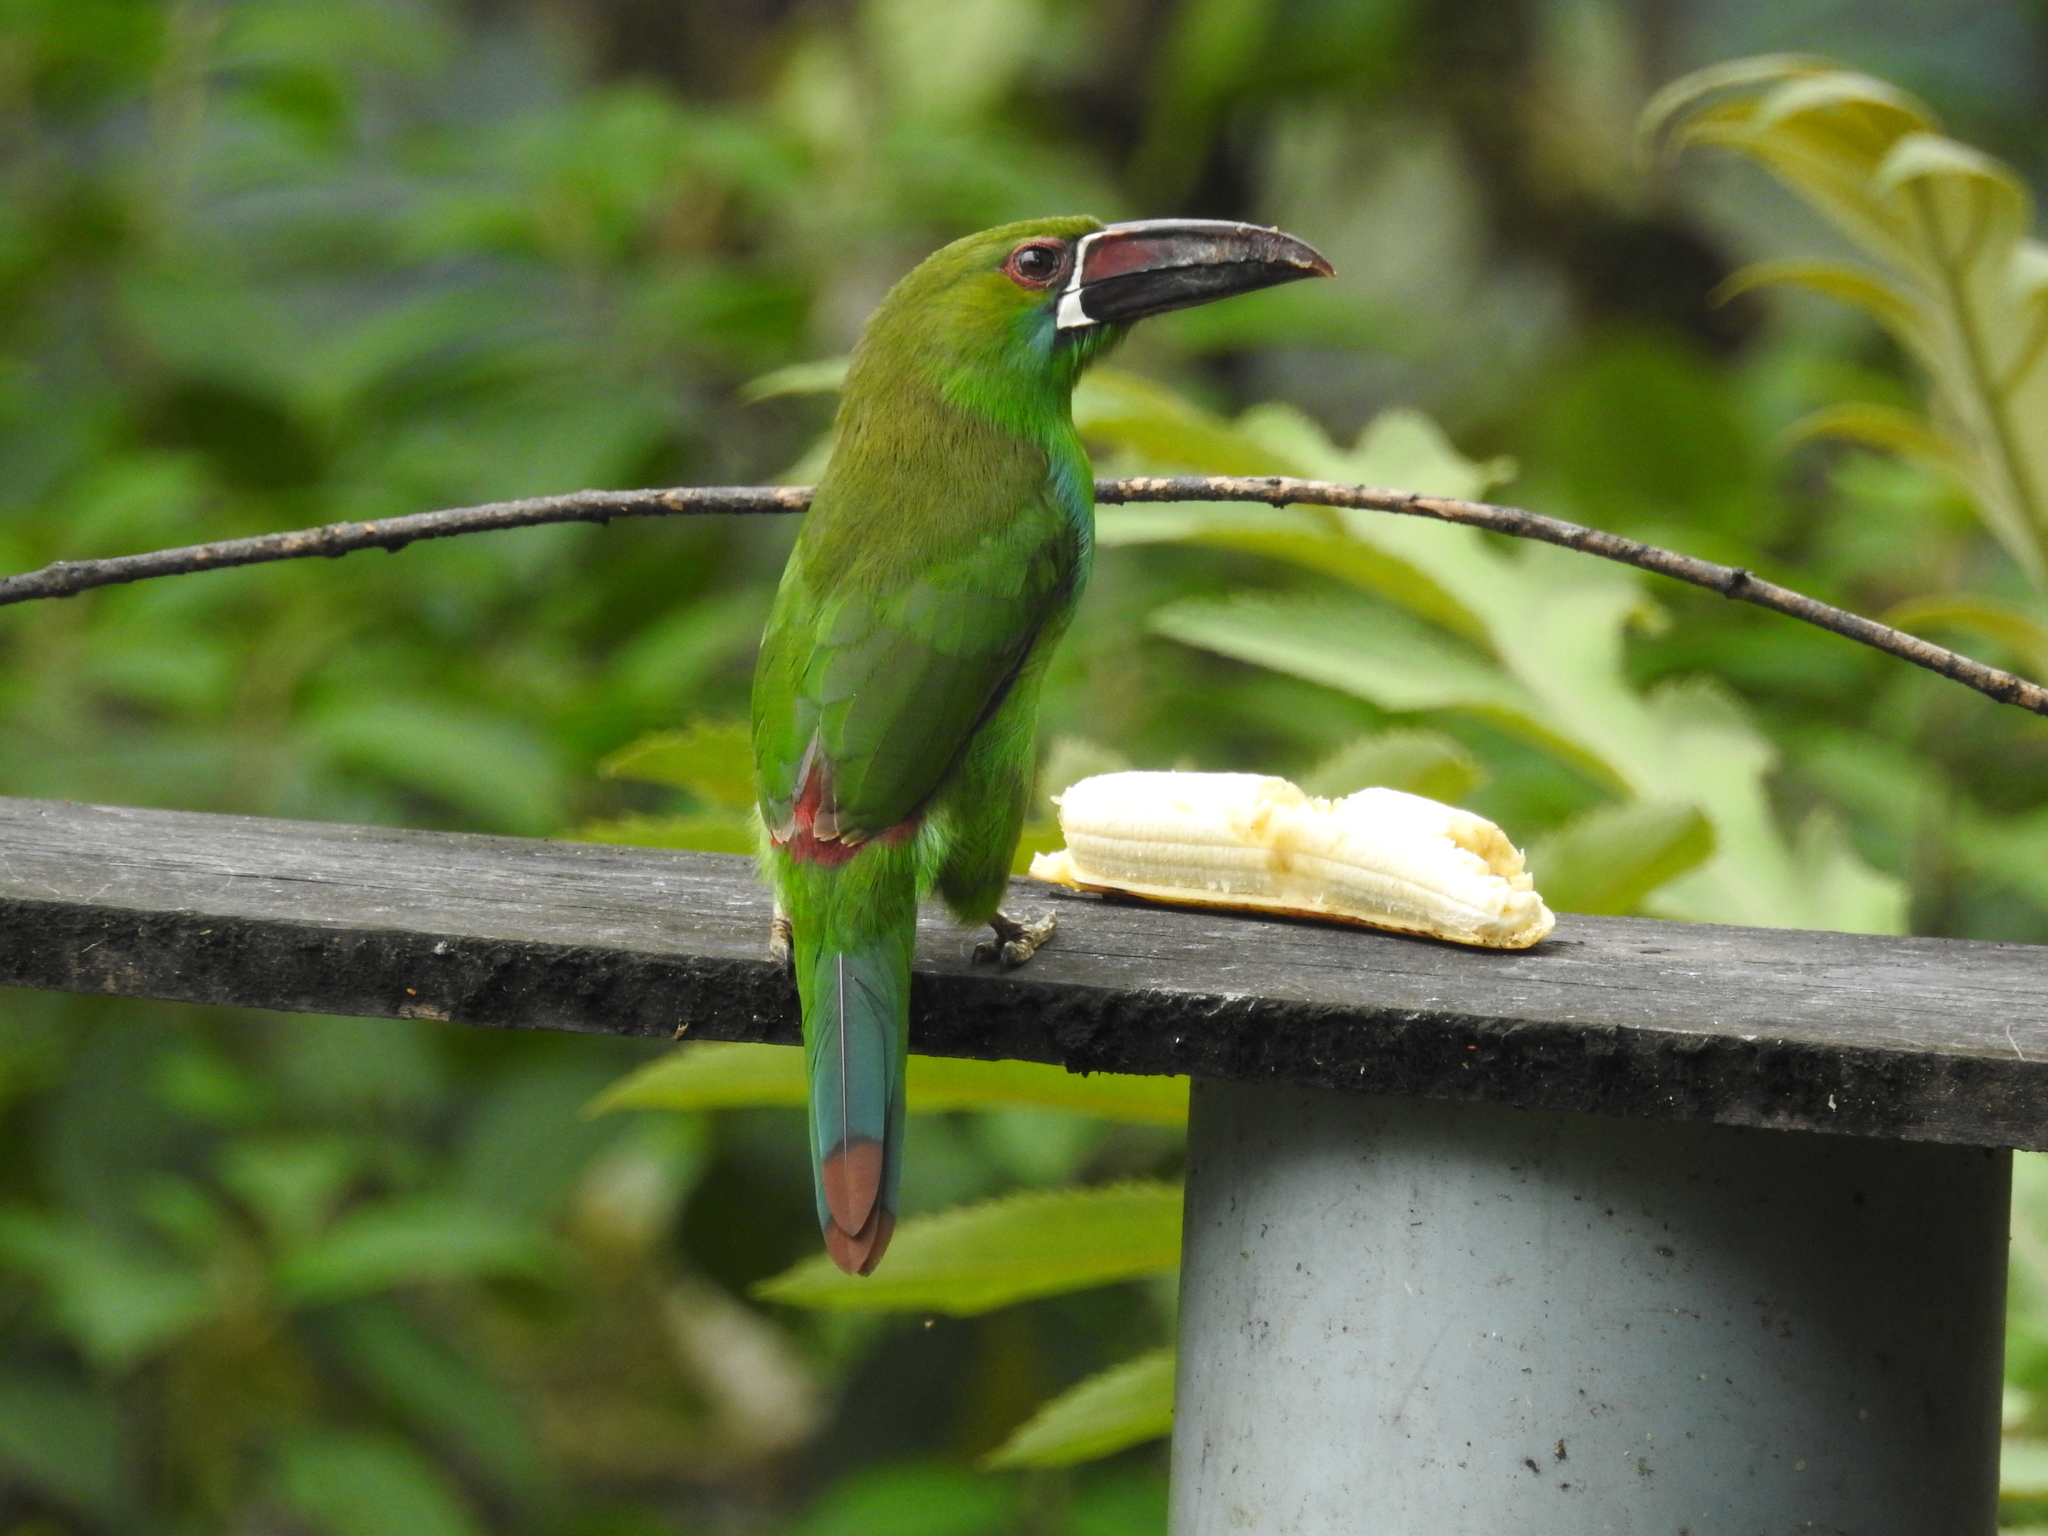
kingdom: Animalia
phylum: Chordata
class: Aves
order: Piciformes
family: Ramphastidae
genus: Aulacorhynchus
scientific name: Aulacorhynchus haematopygus
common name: Crimson-rumped toucanet
